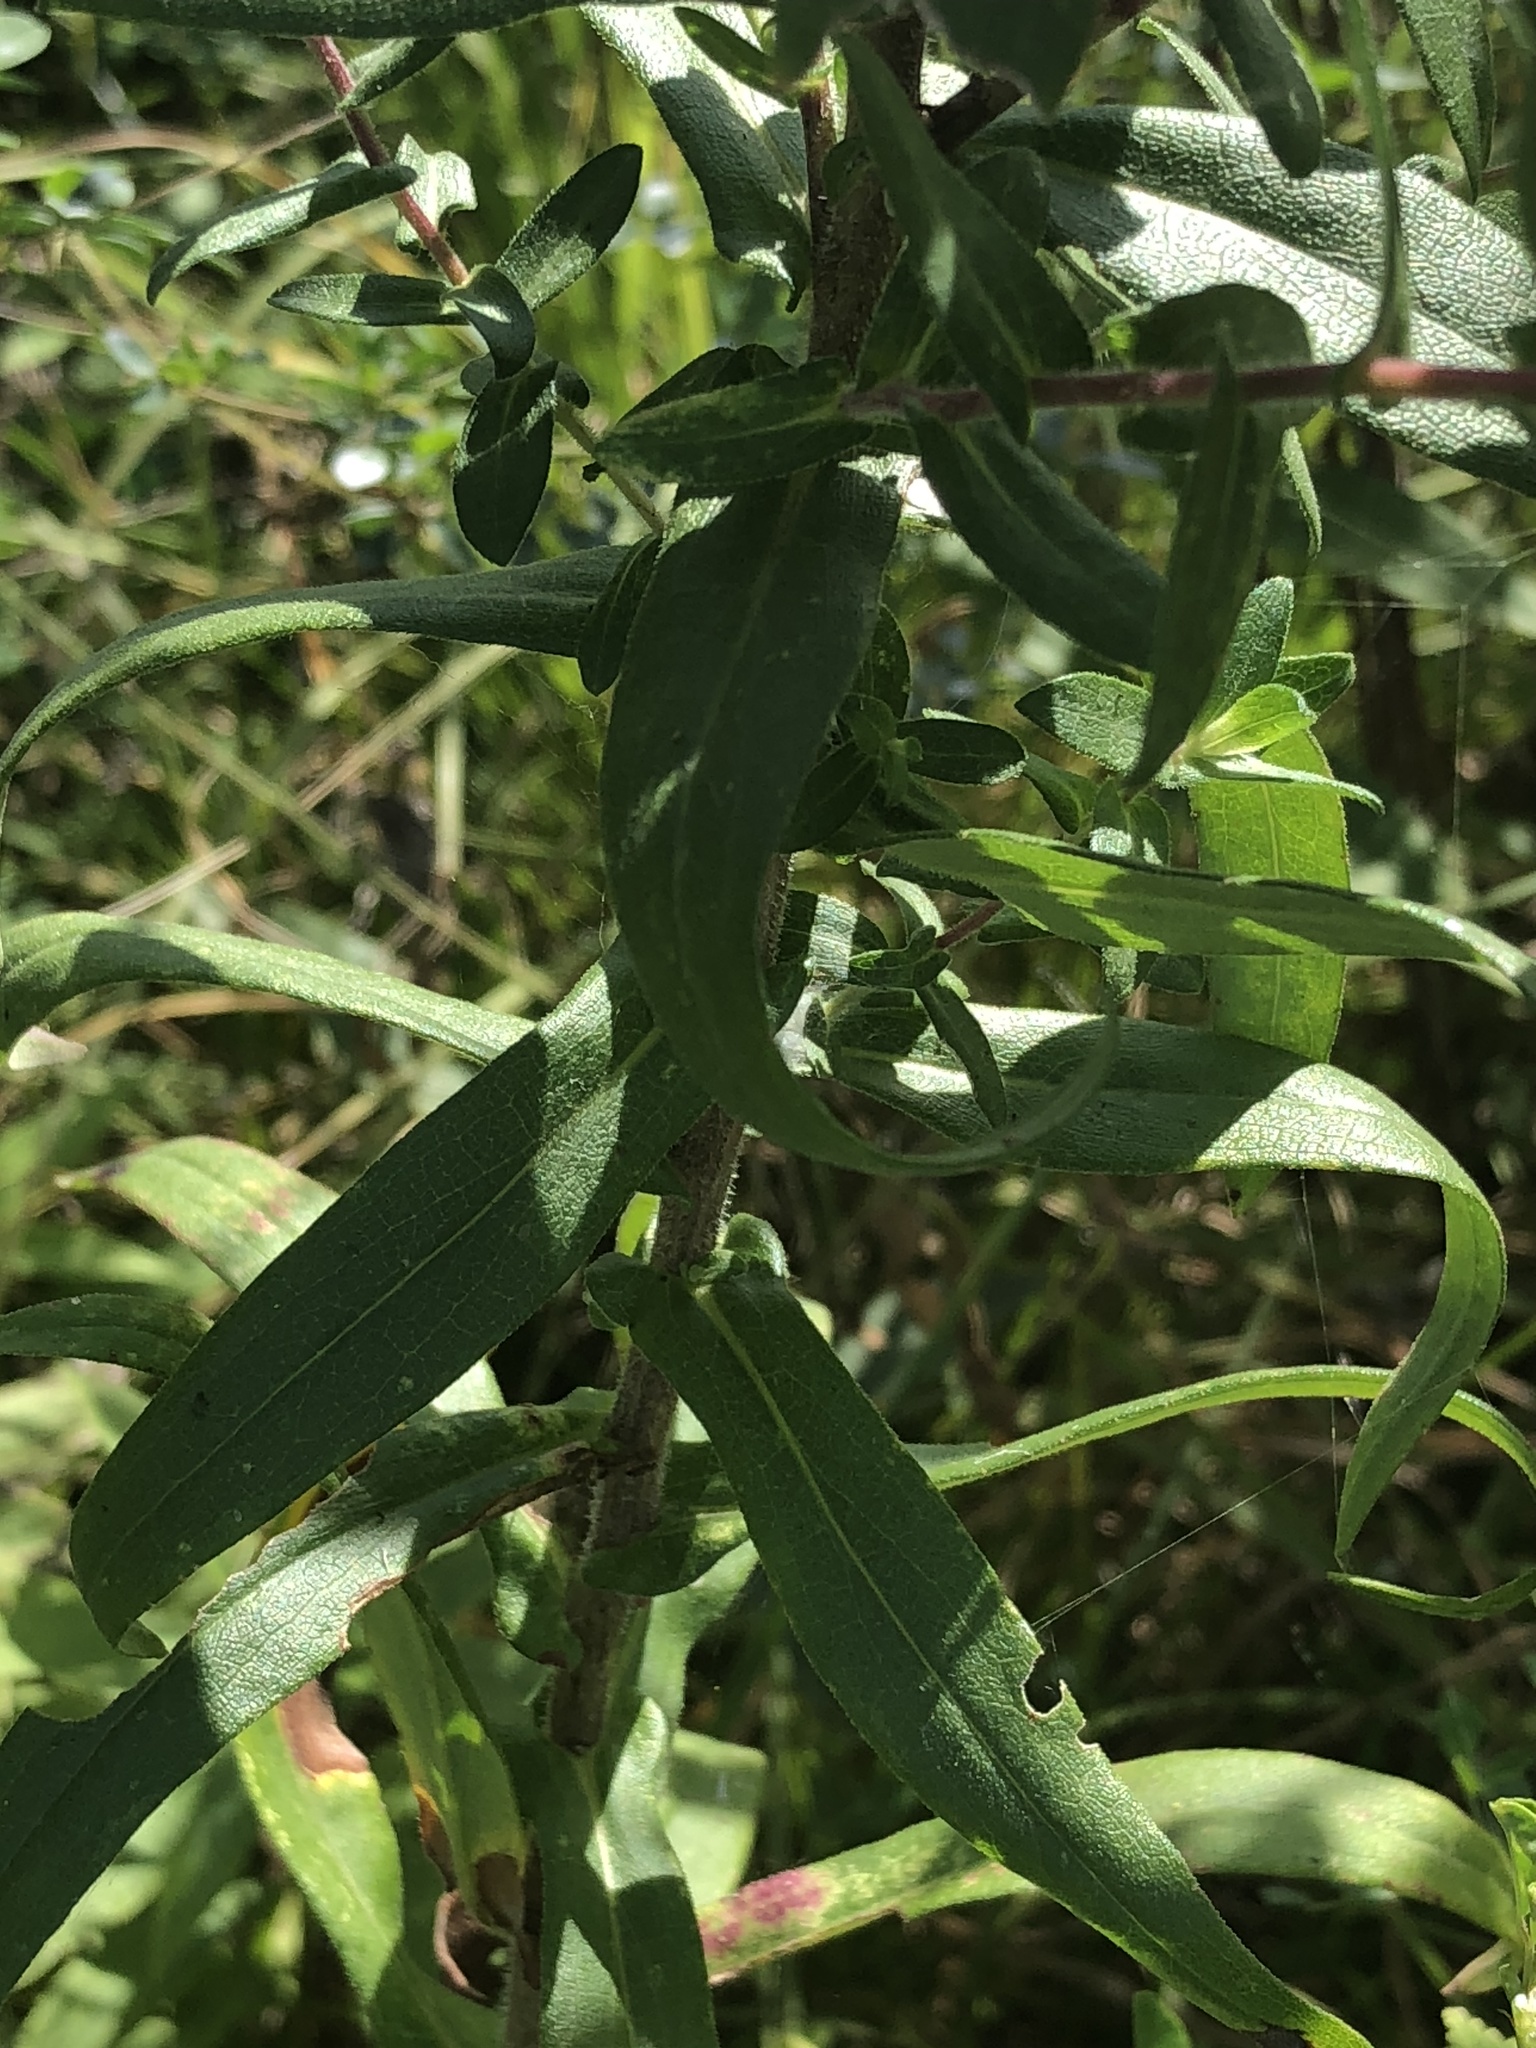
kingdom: Plantae
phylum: Tracheophyta
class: Magnoliopsida
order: Asterales
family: Asteraceae
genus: Symphyotrichum
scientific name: Symphyotrichum novae-angliae
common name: Michaelmas daisy
